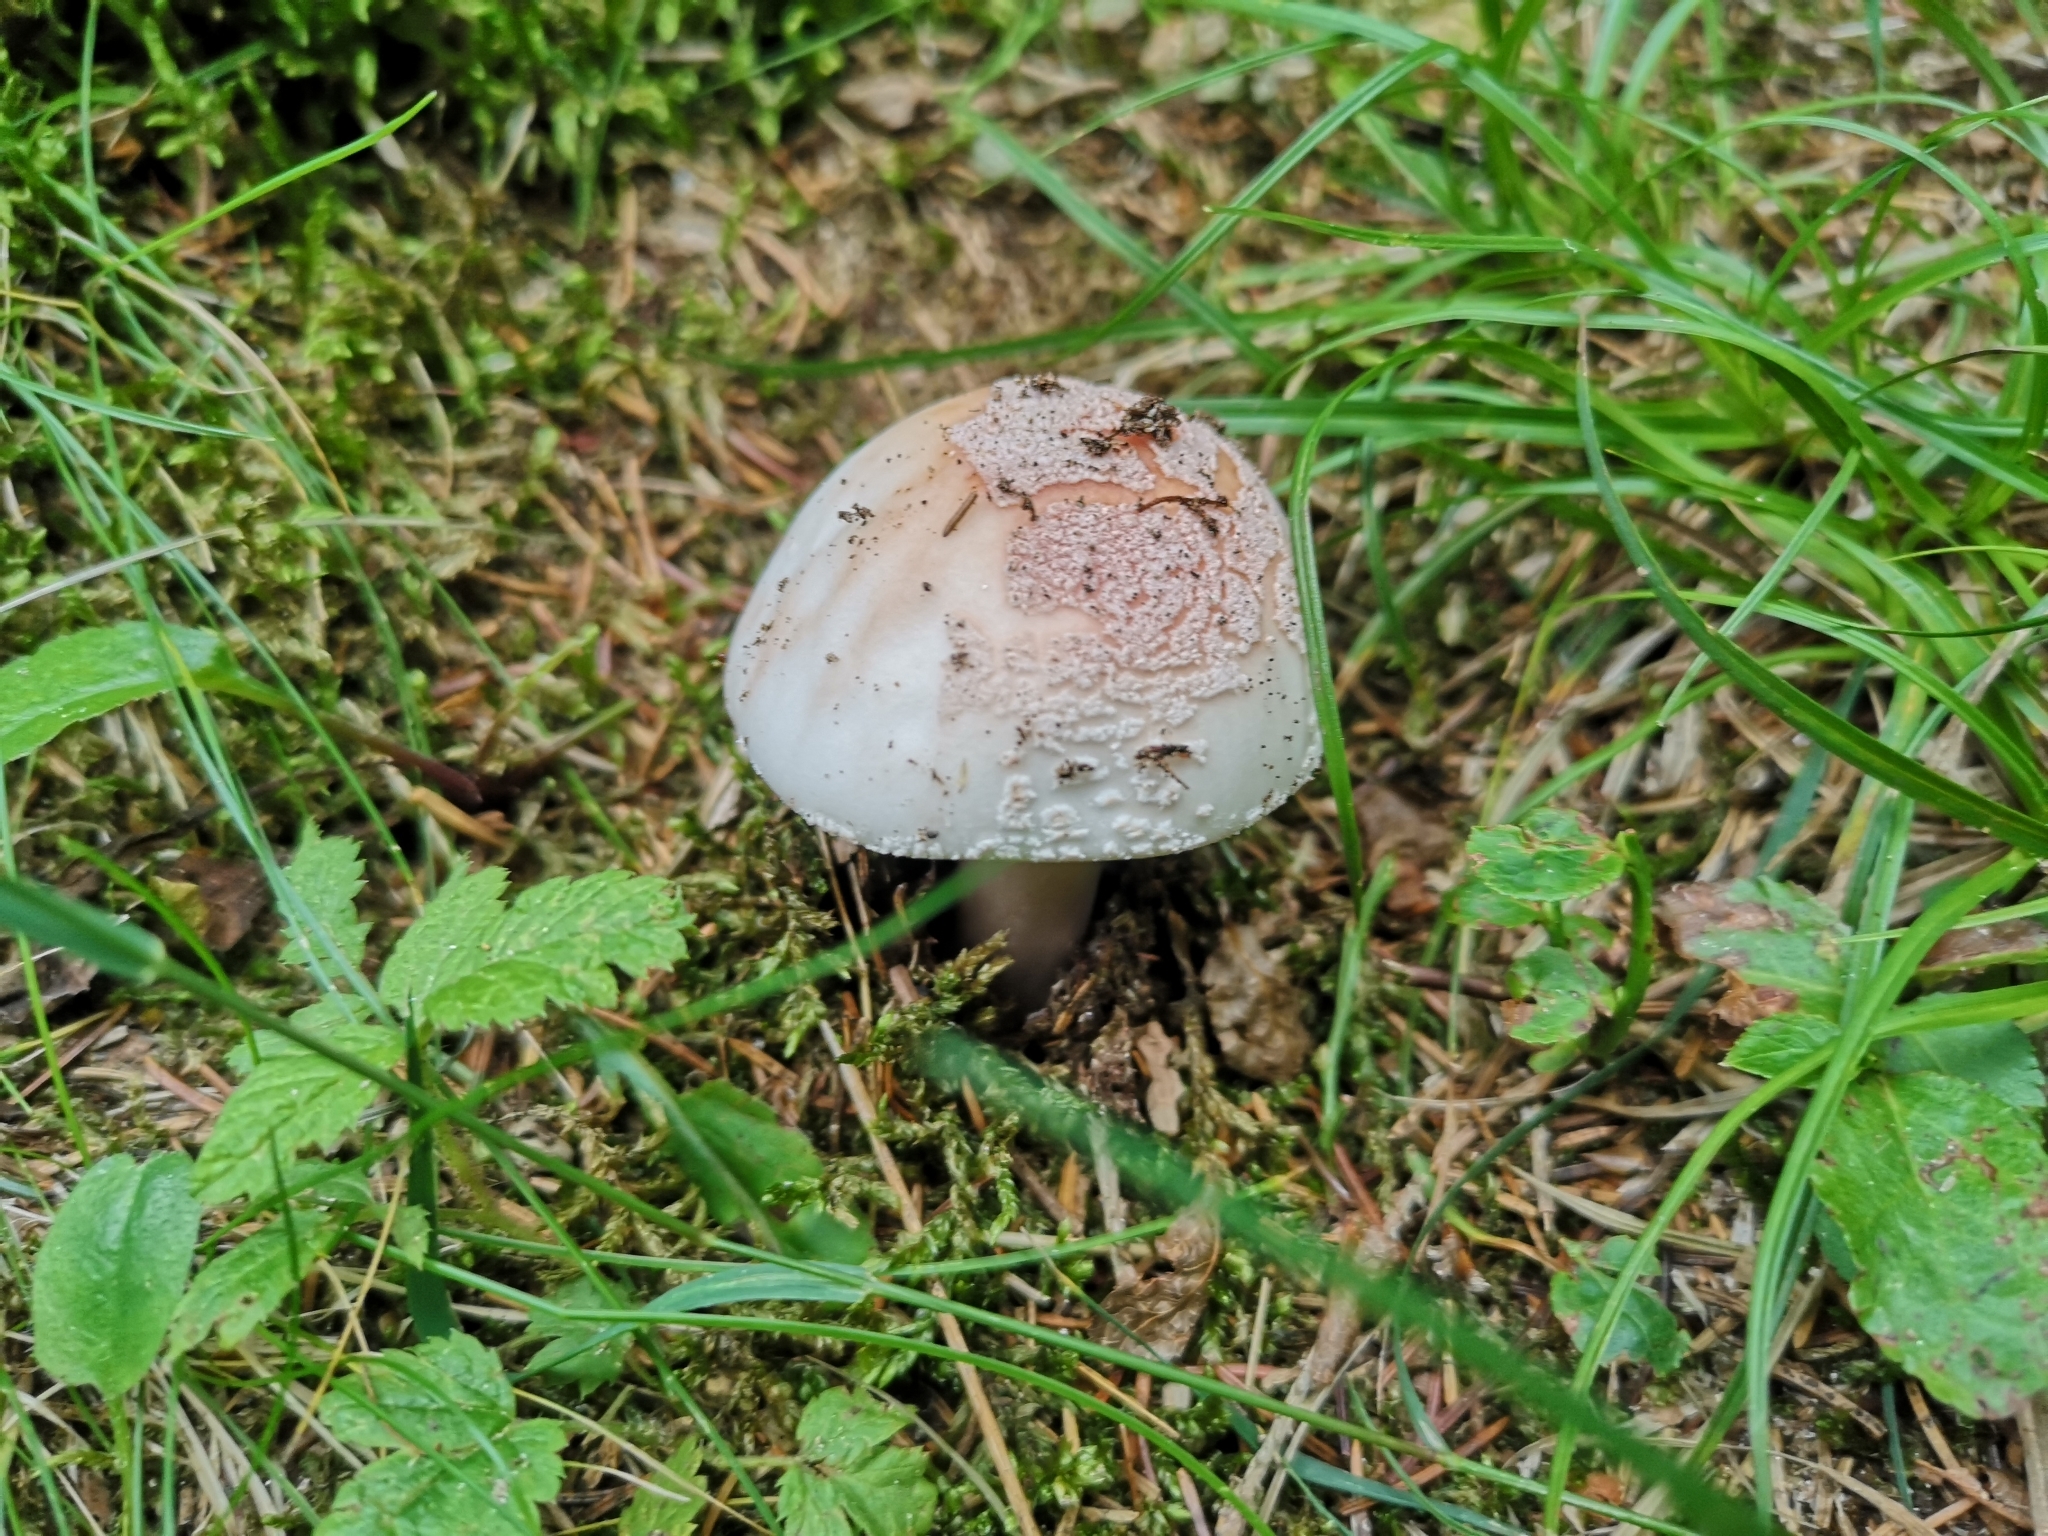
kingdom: Fungi
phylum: Basidiomycota
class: Agaricomycetes
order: Agaricales
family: Amanitaceae
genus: Amanita
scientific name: Amanita rubescens
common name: Blusher
